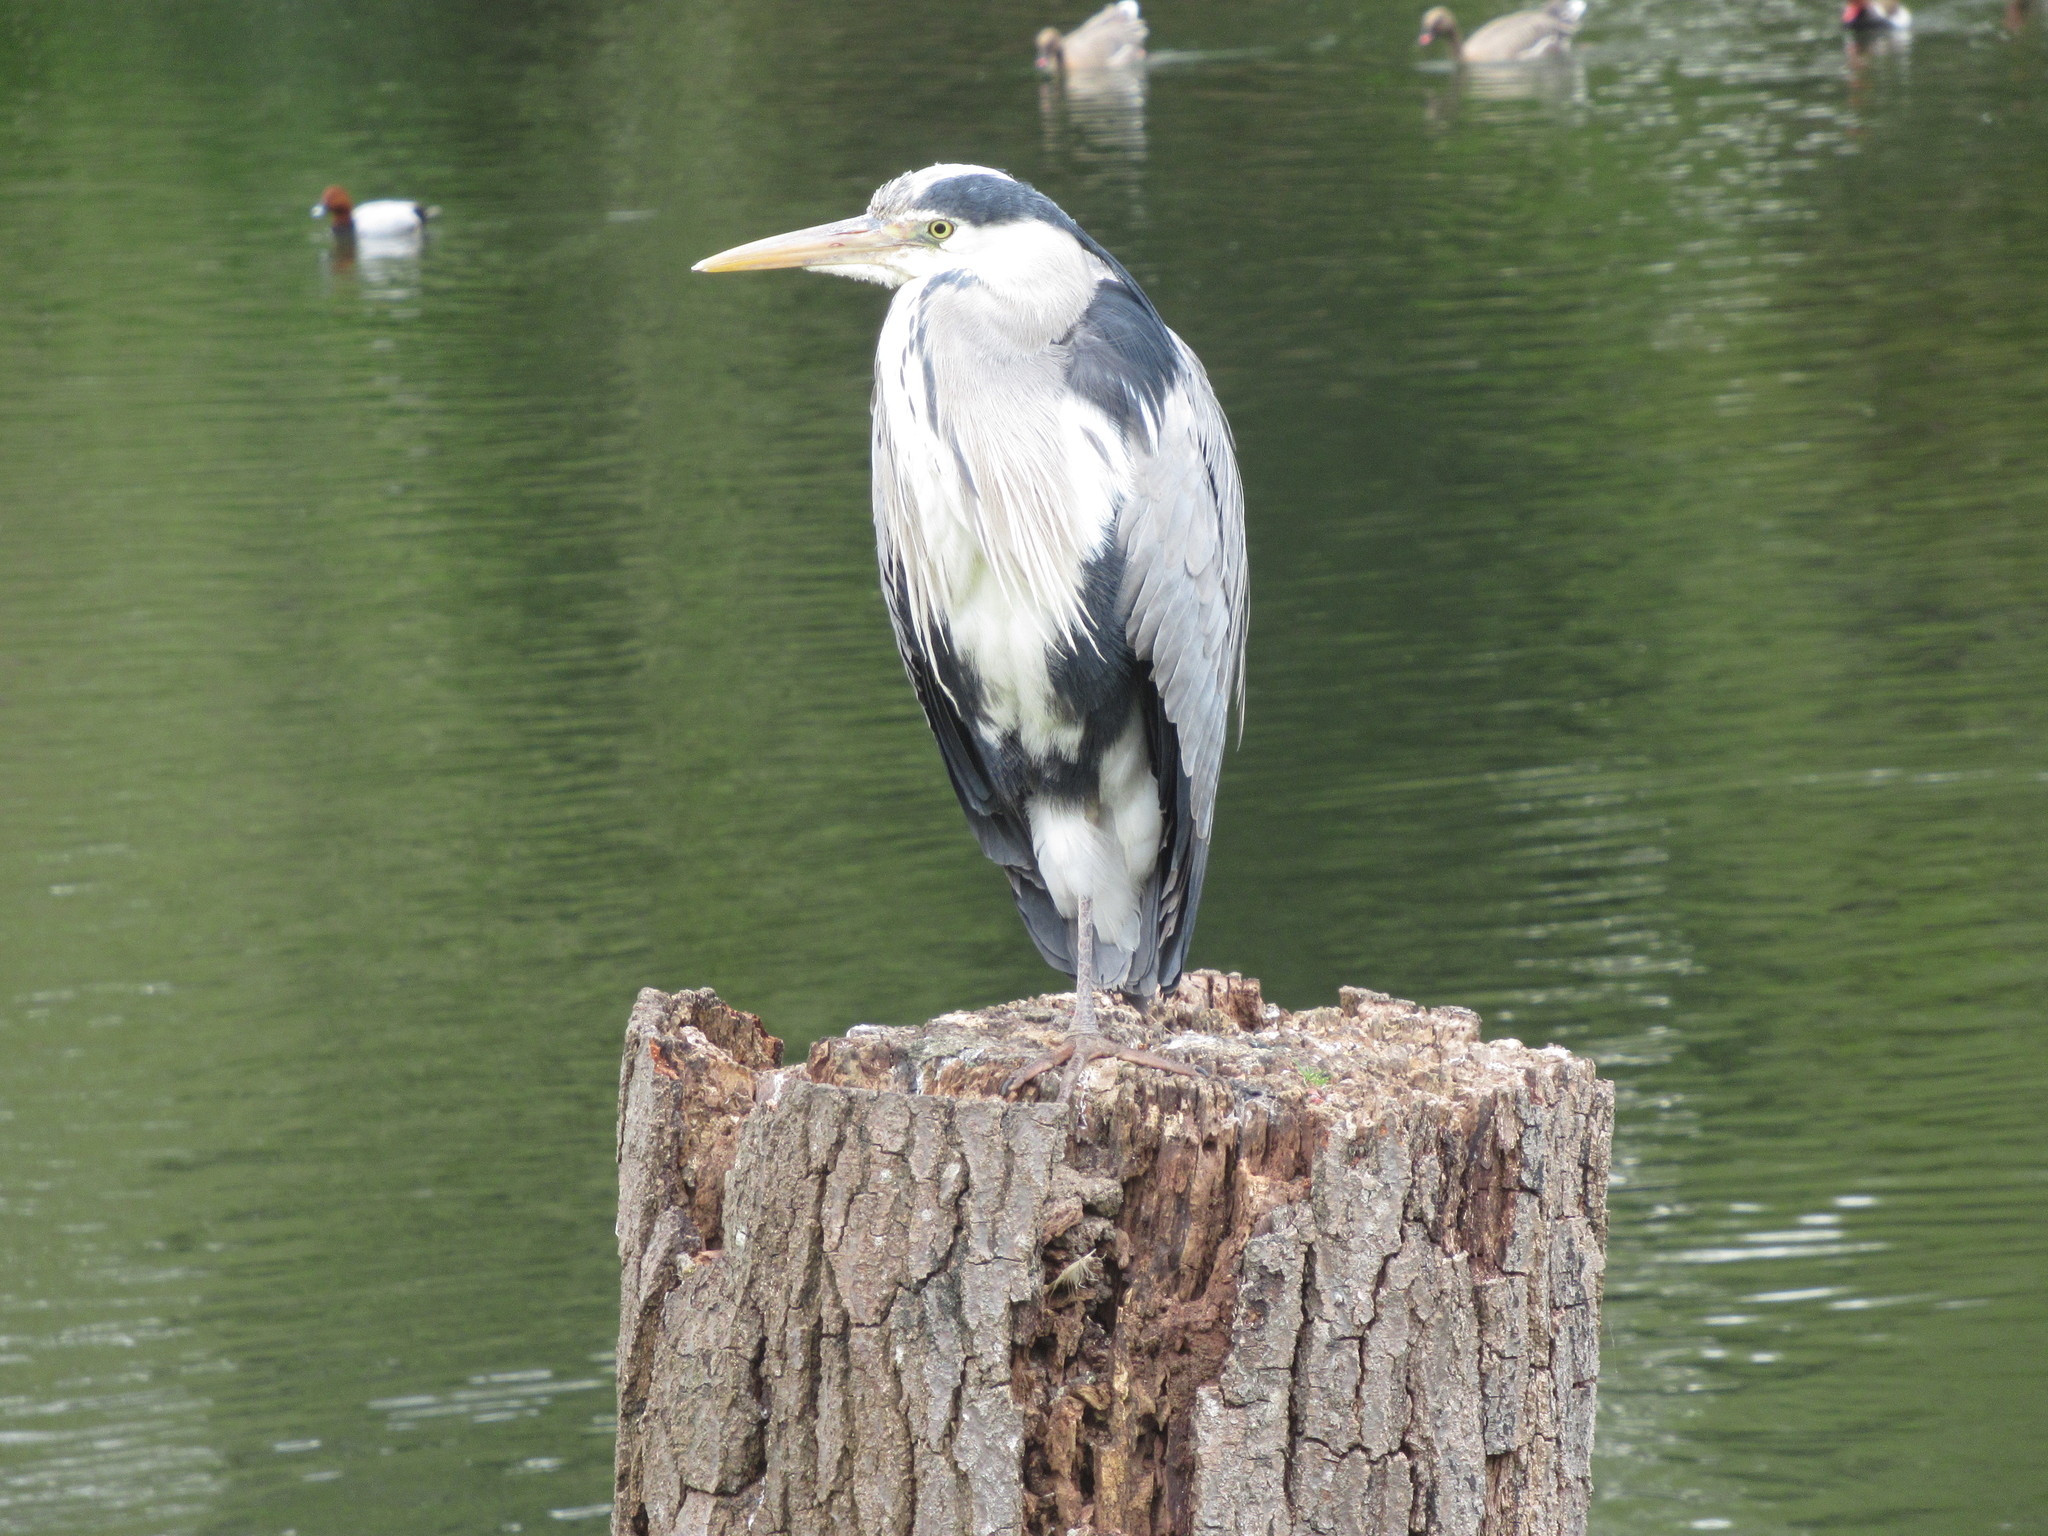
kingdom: Animalia
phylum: Chordata
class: Aves
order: Pelecaniformes
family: Ardeidae
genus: Ardea
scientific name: Ardea cinerea
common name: Grey heron
